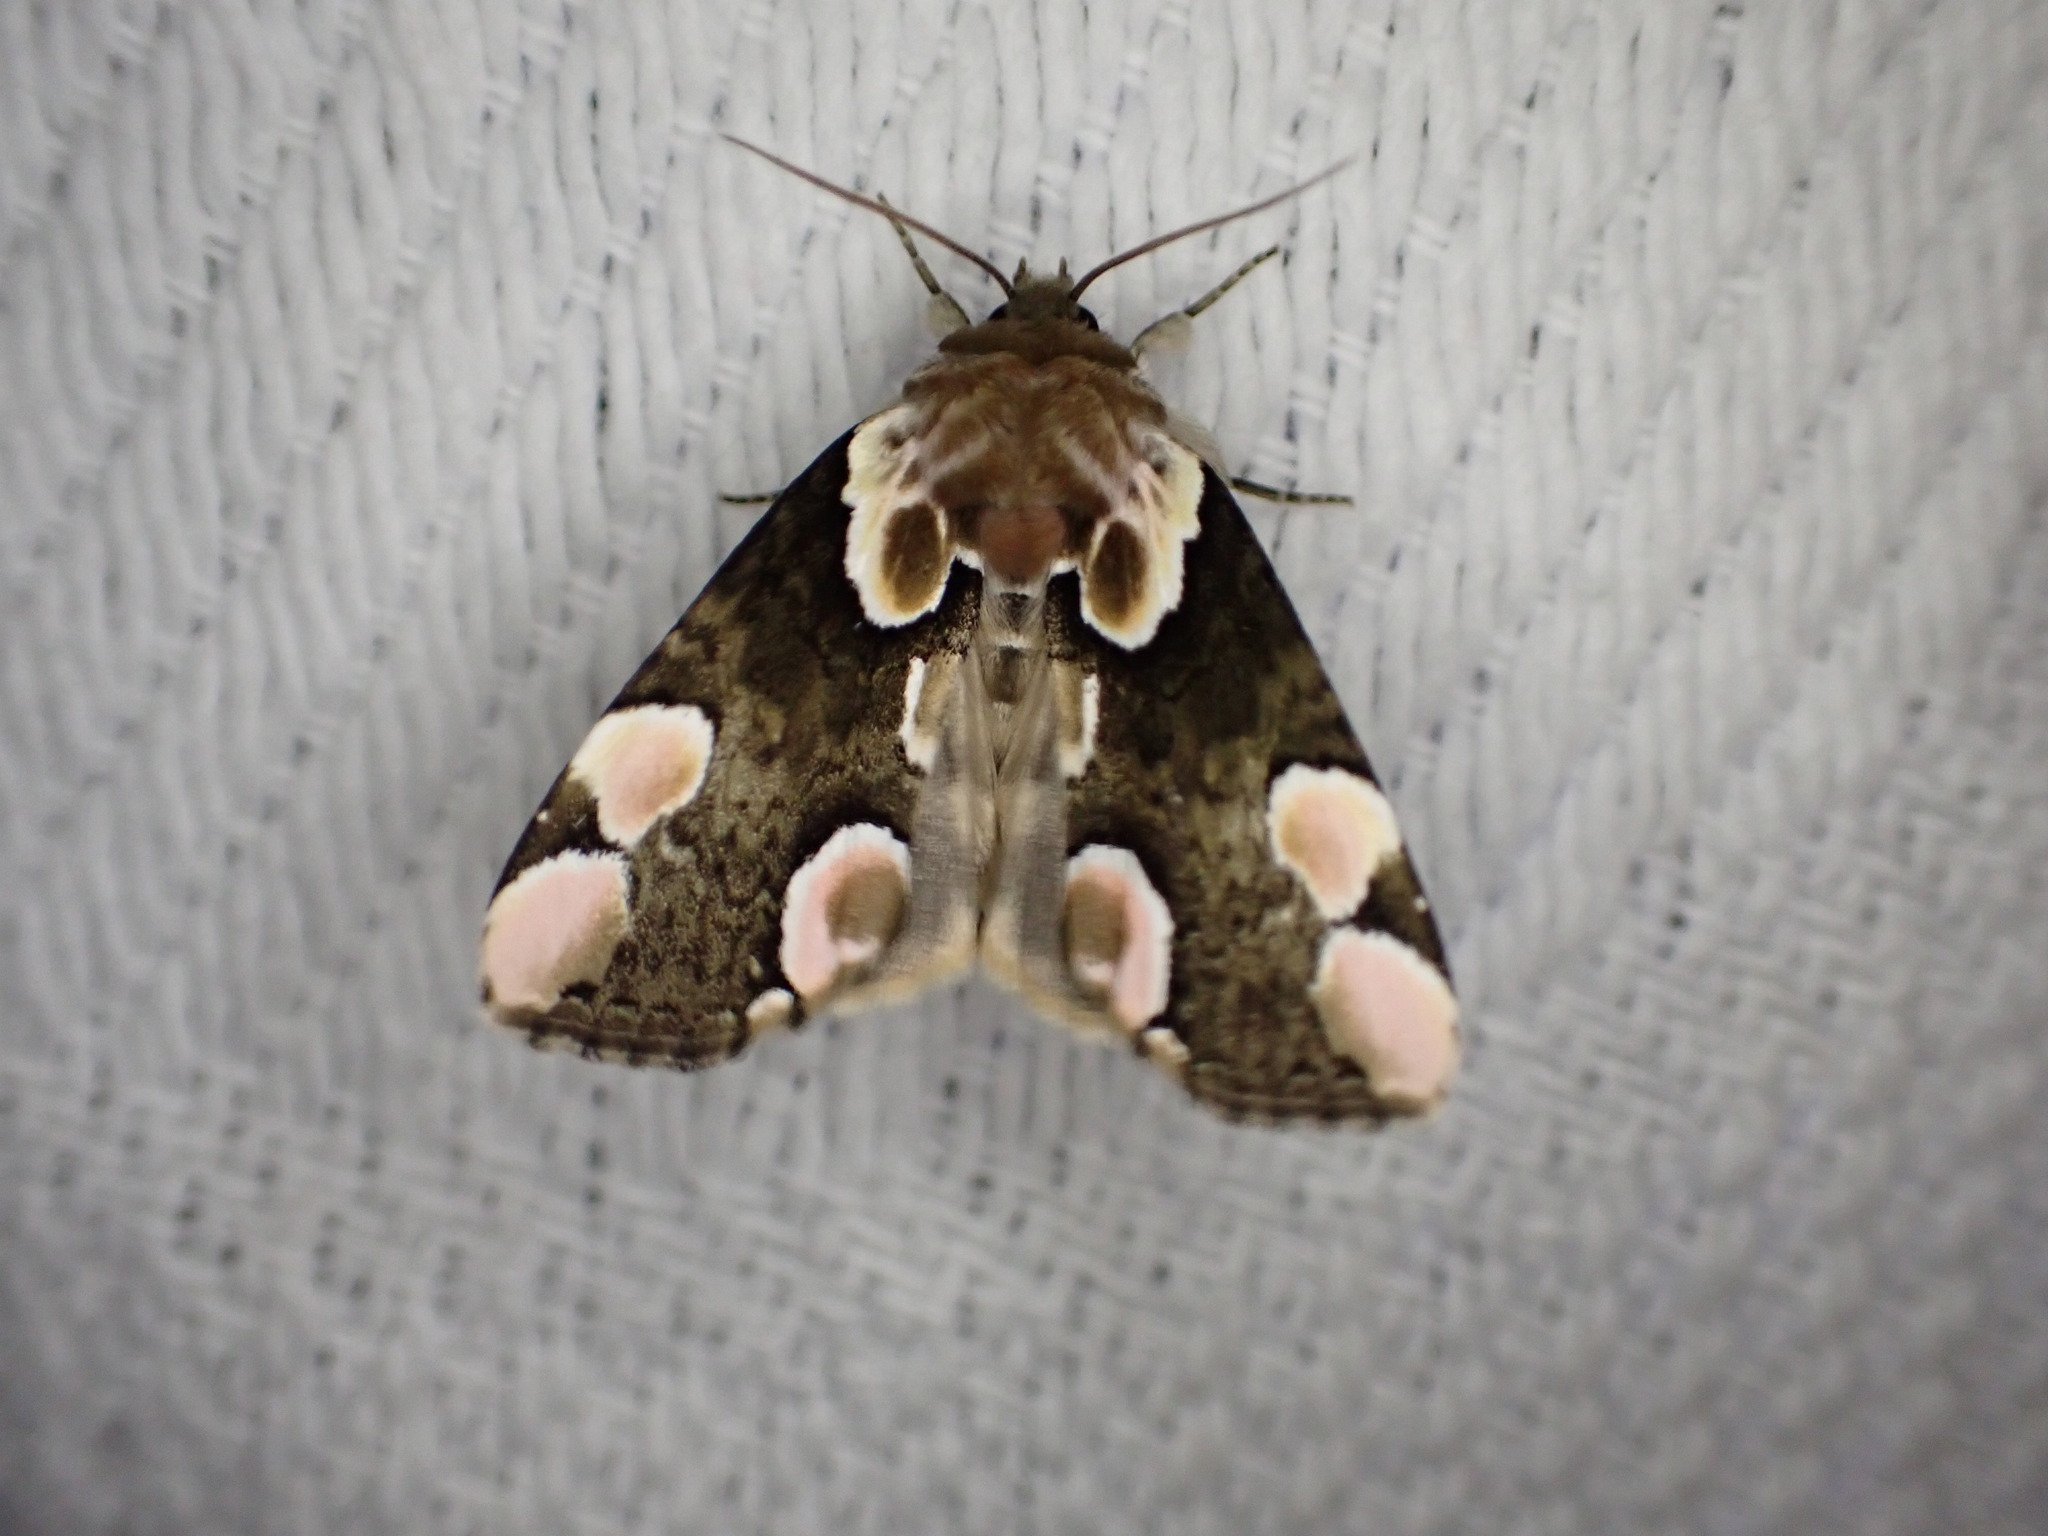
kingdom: Animalia
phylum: Arthropoda
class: Insecta
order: Lepidoptera
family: Drepanidae
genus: Thyatira
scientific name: Thyatira batis
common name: Peach blossom
